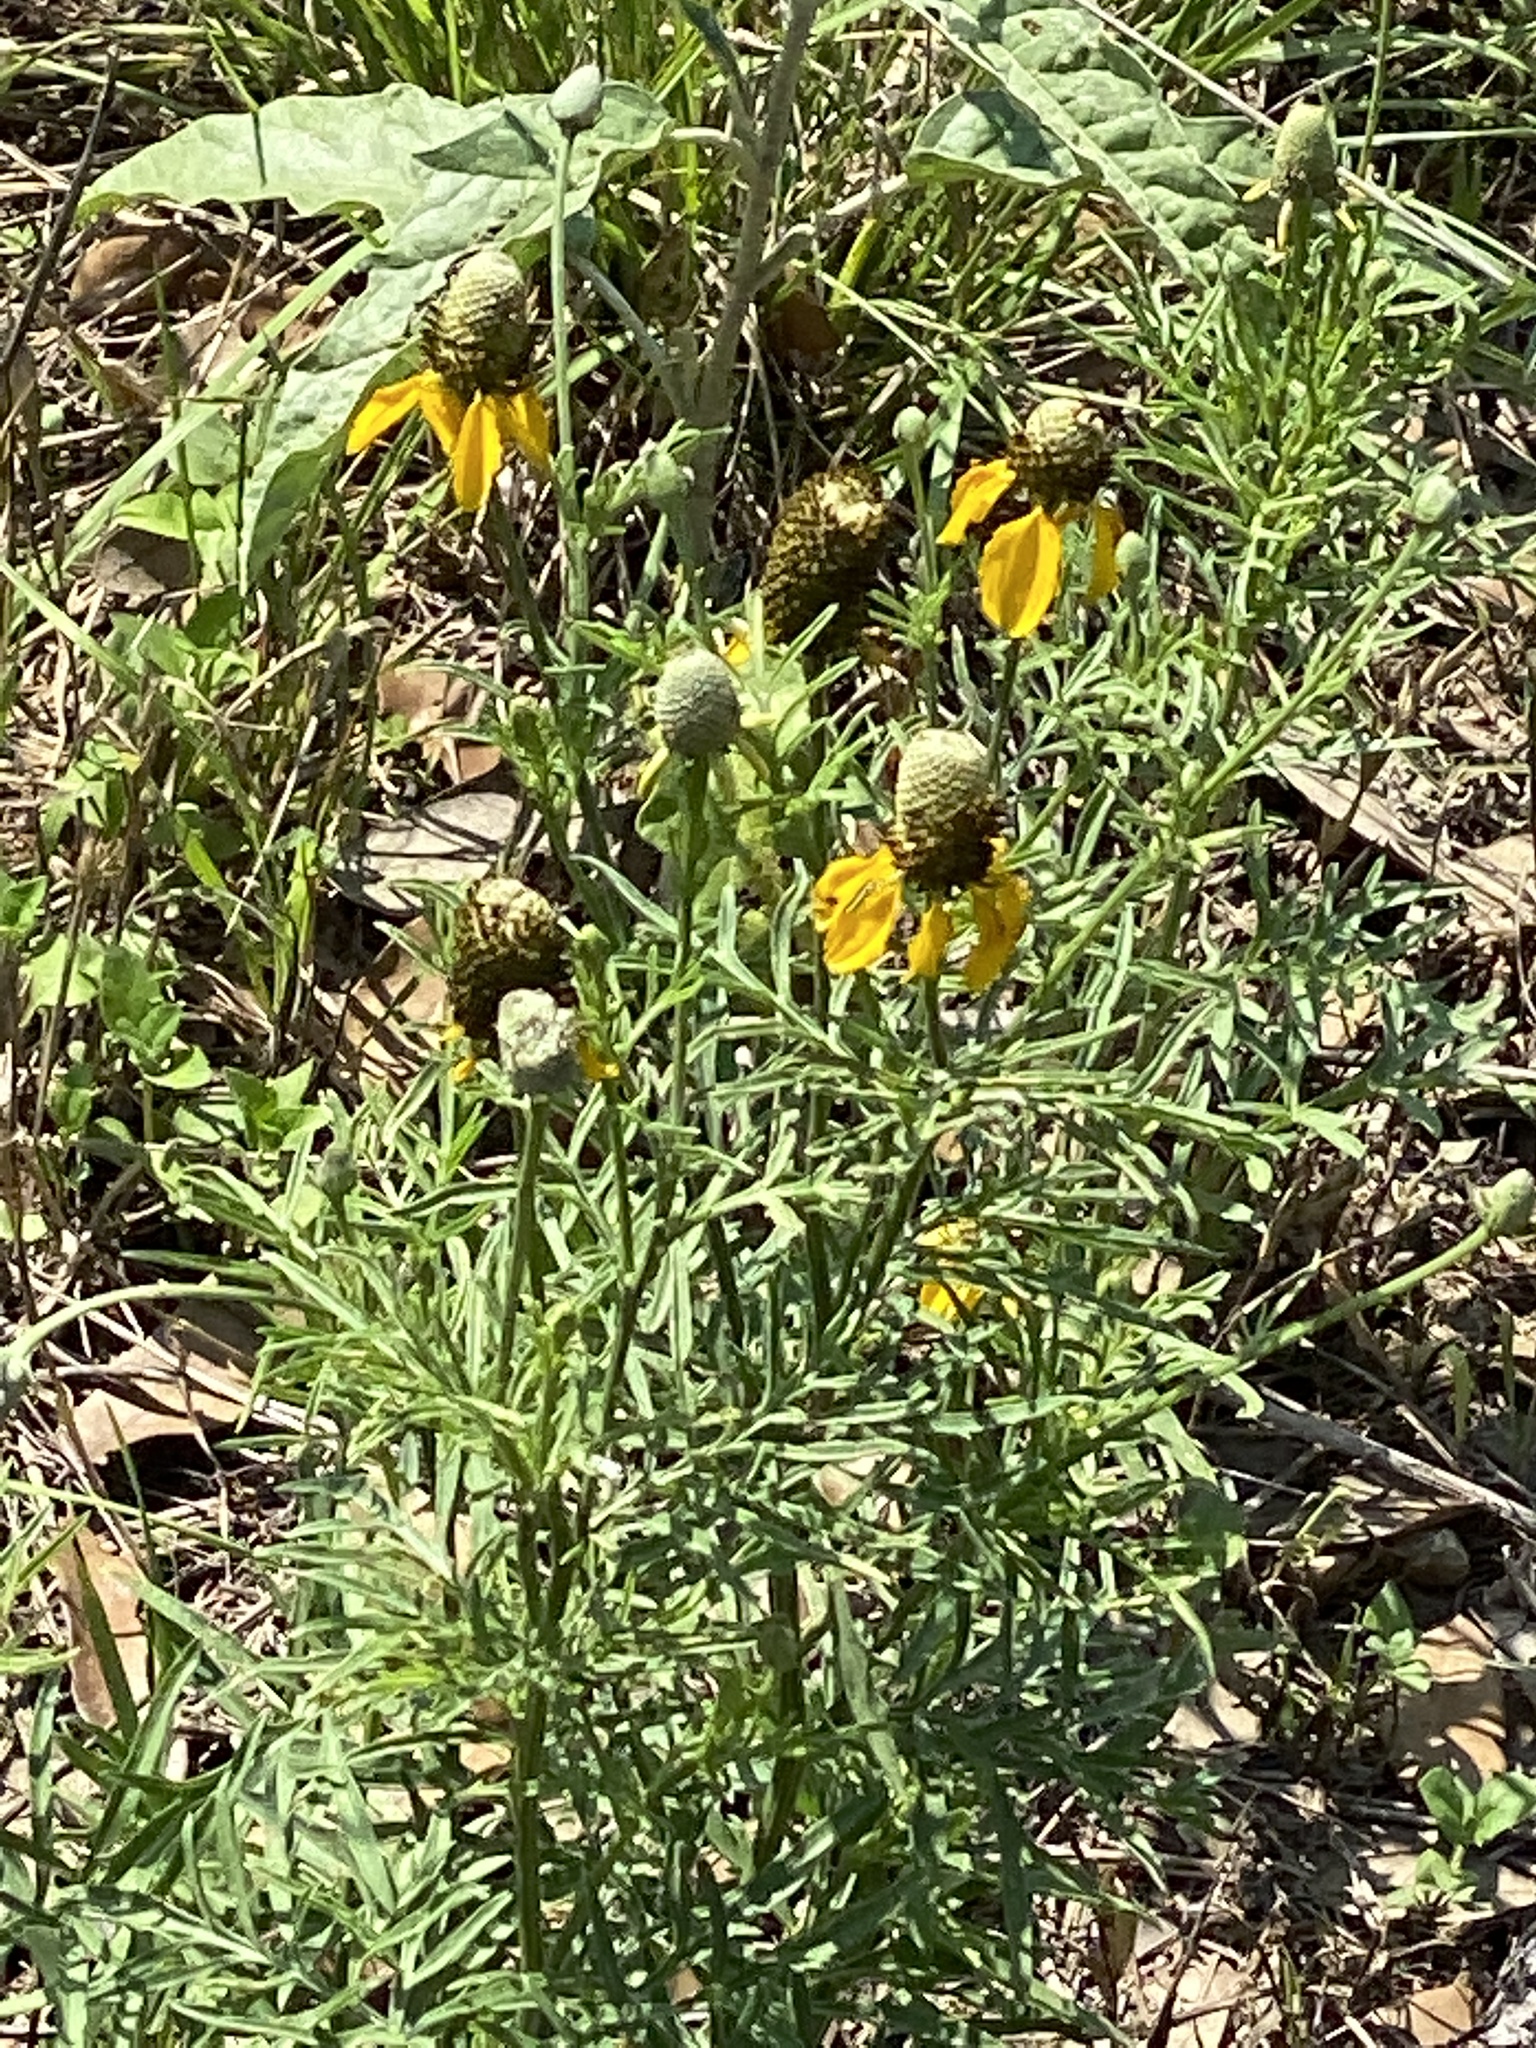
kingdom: Plantae
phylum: Tracheophyta
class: Magnoliopsida
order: Asterales
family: Asteraceae
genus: Ratibida
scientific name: Ratibida columnifera
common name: Prairie coneflower
